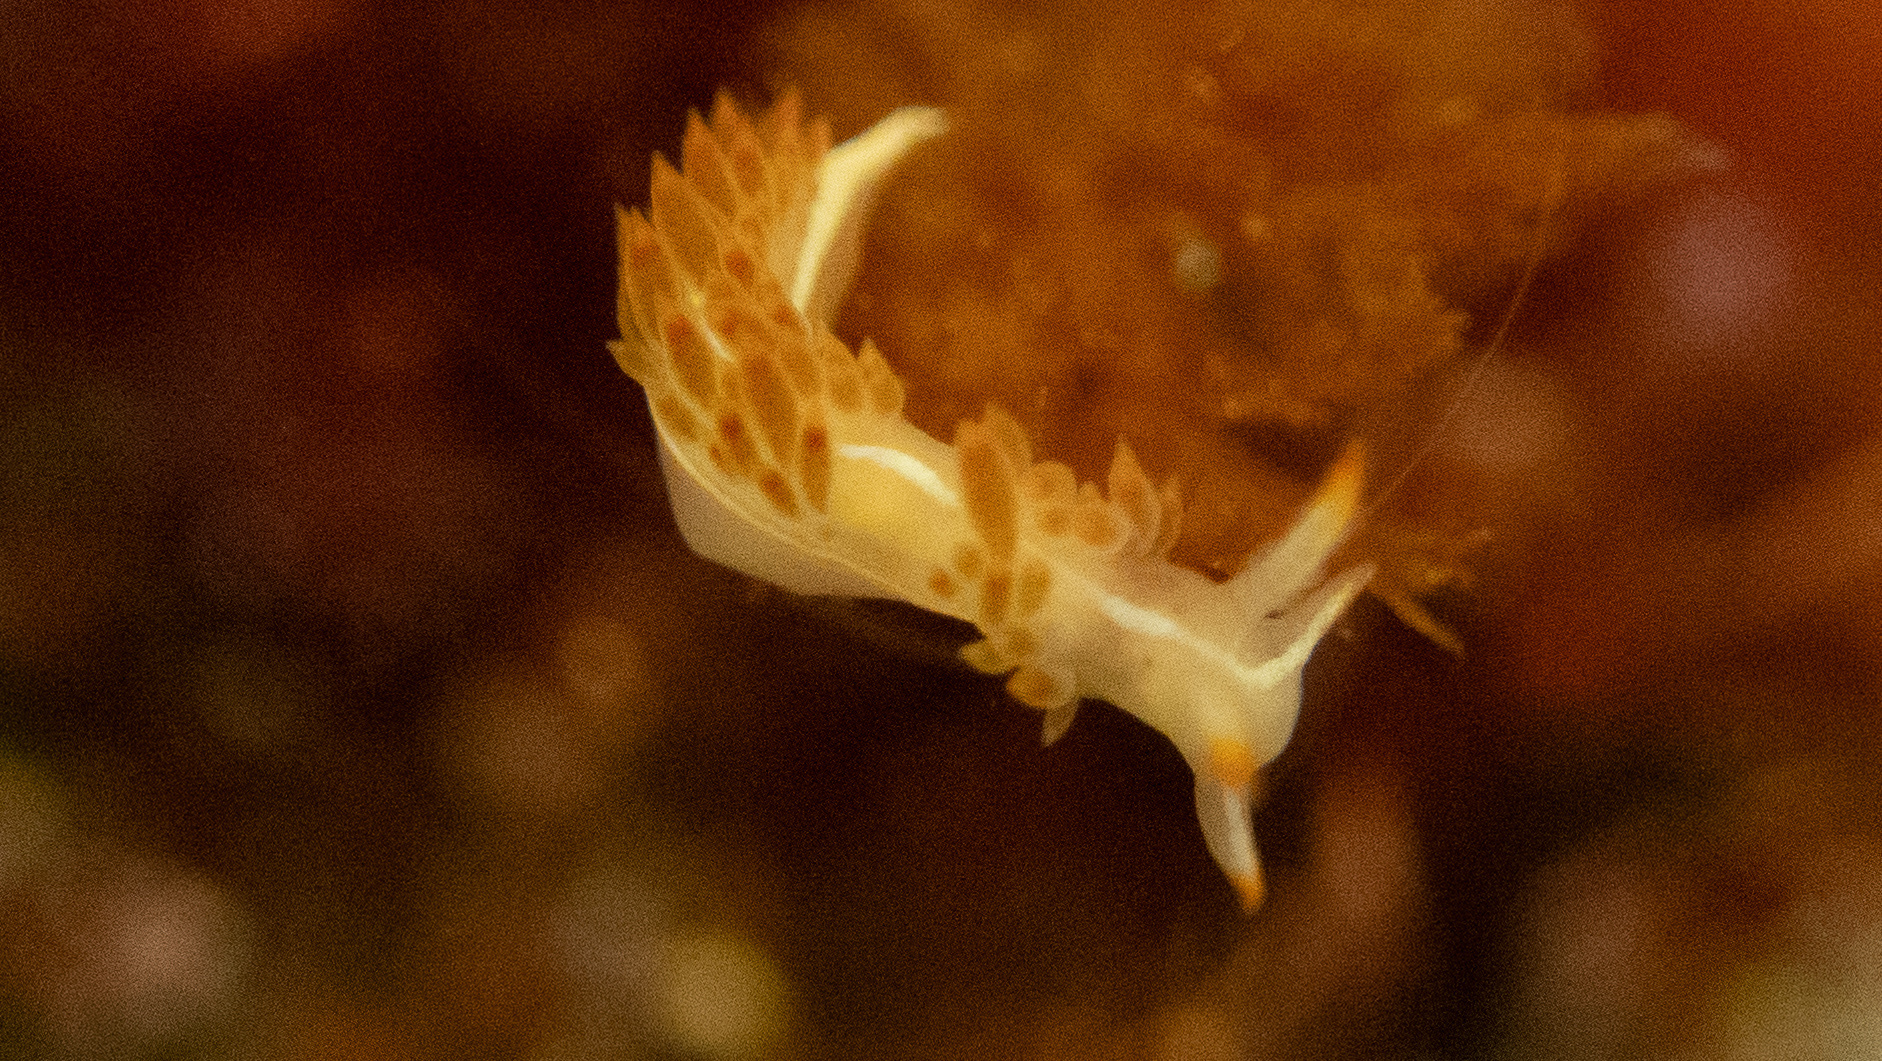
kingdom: Animalia
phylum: Mollusca
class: Gastropoda
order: Nudibranchia
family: Coryphellidae
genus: Coryphella
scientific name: Coryphella trilineata
